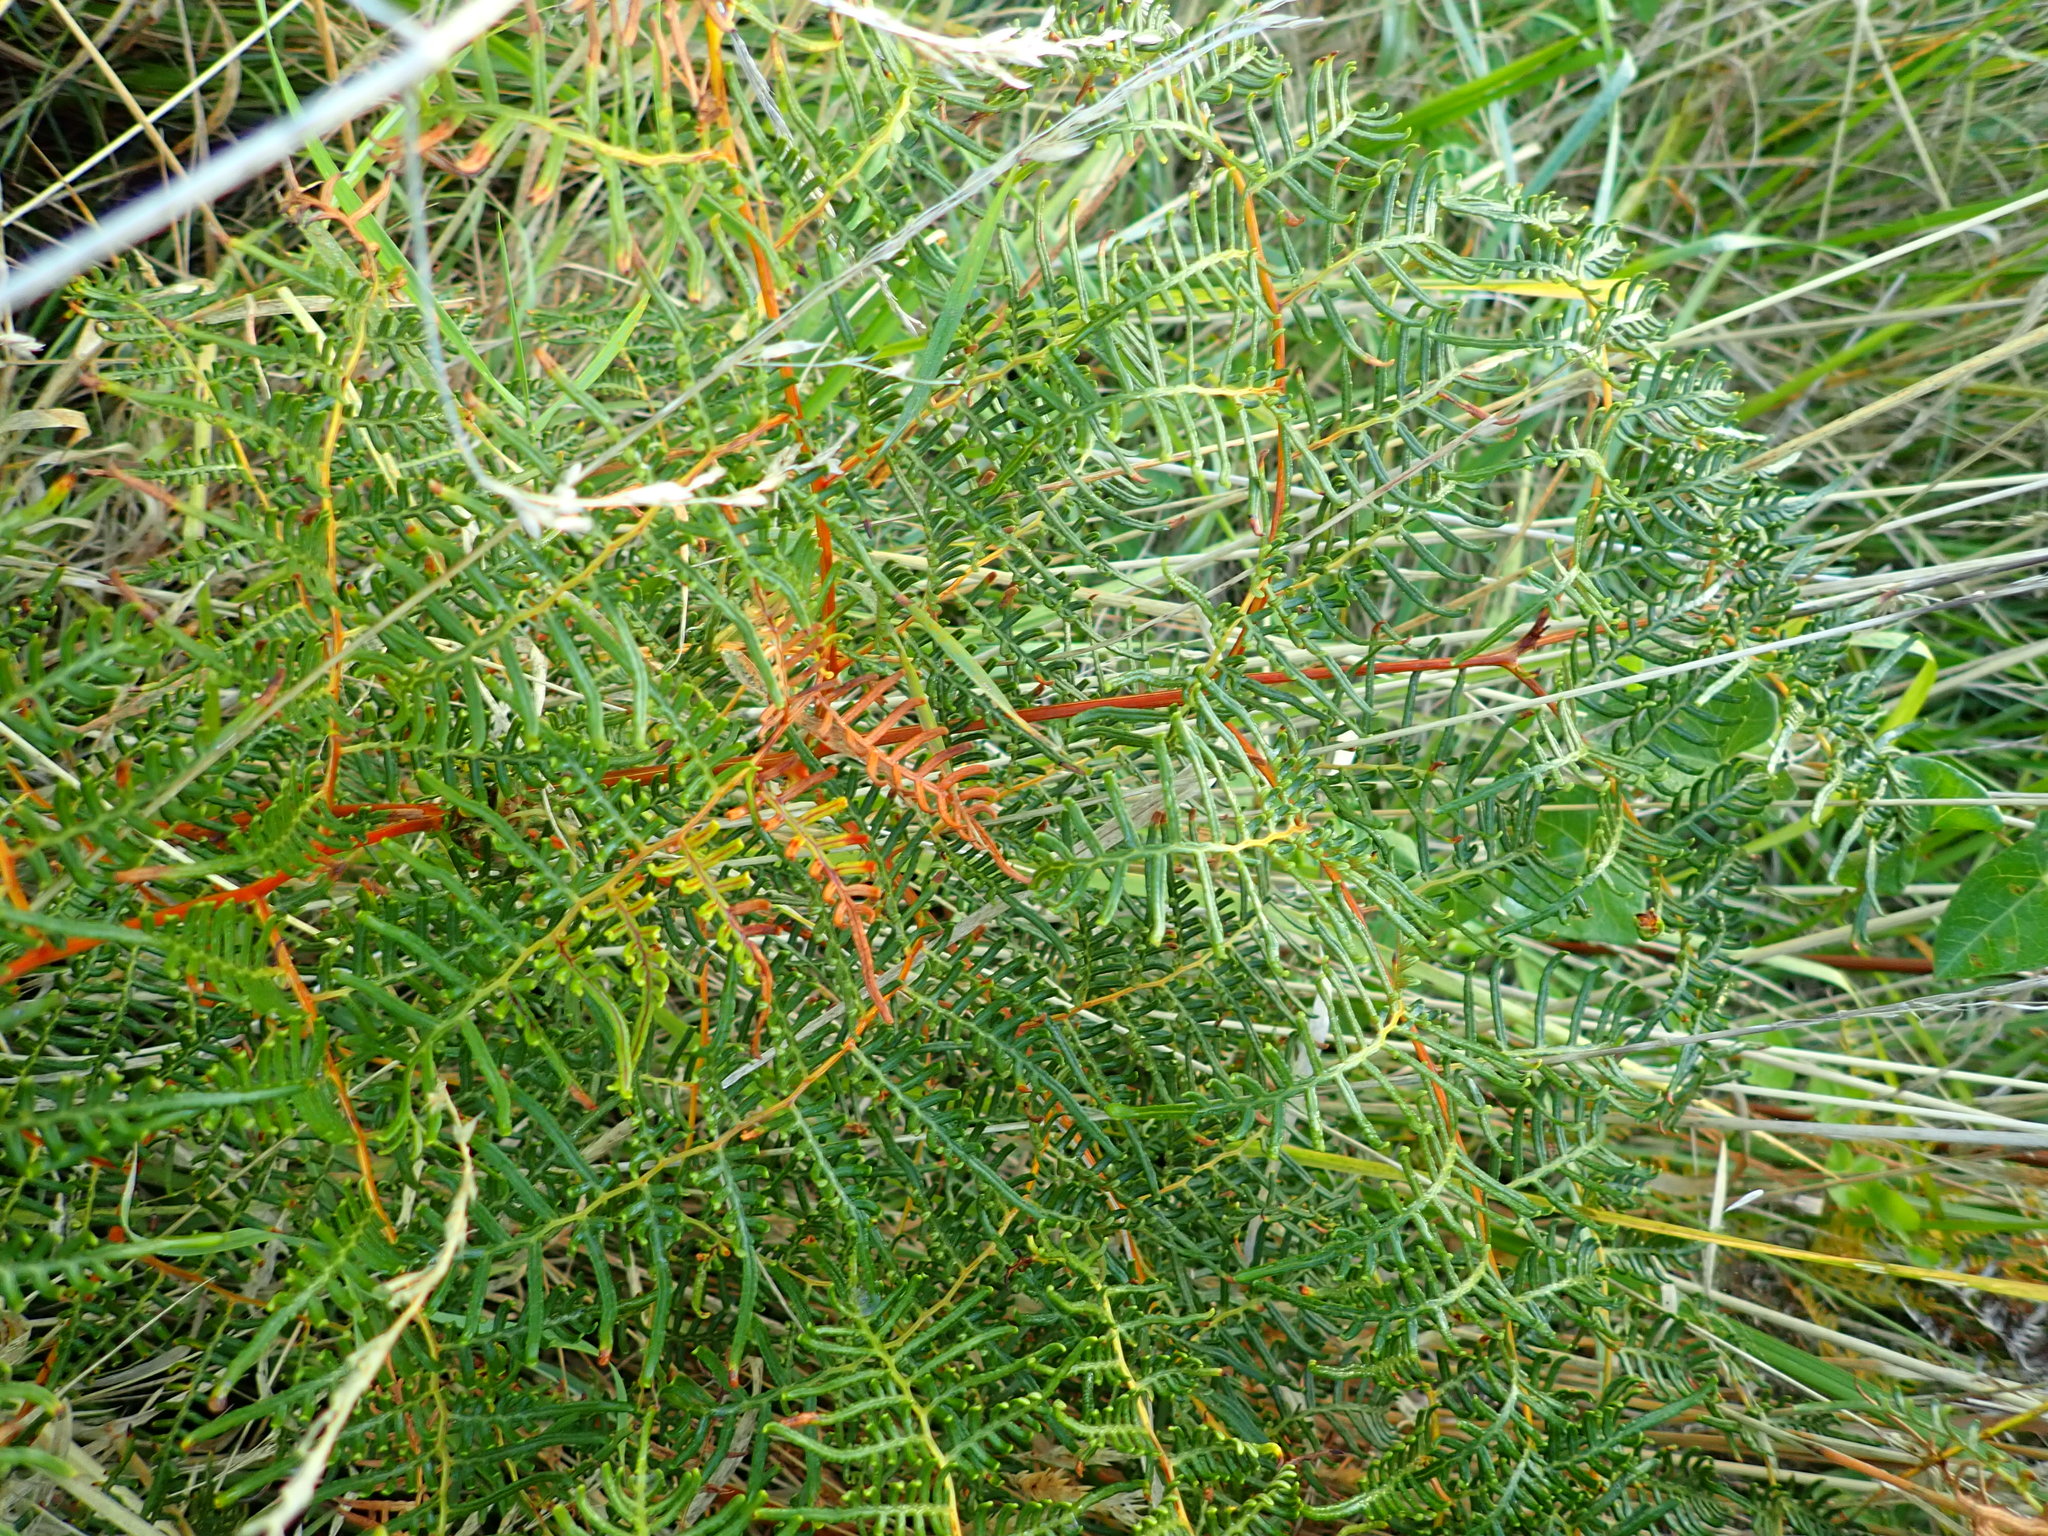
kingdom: Plantae
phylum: Tracheophyta
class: Polypodiopsida
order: Polypodiales
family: Dennstaedtiaceae
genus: Pteridium
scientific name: Pteridium esculentum
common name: Bracken fern
